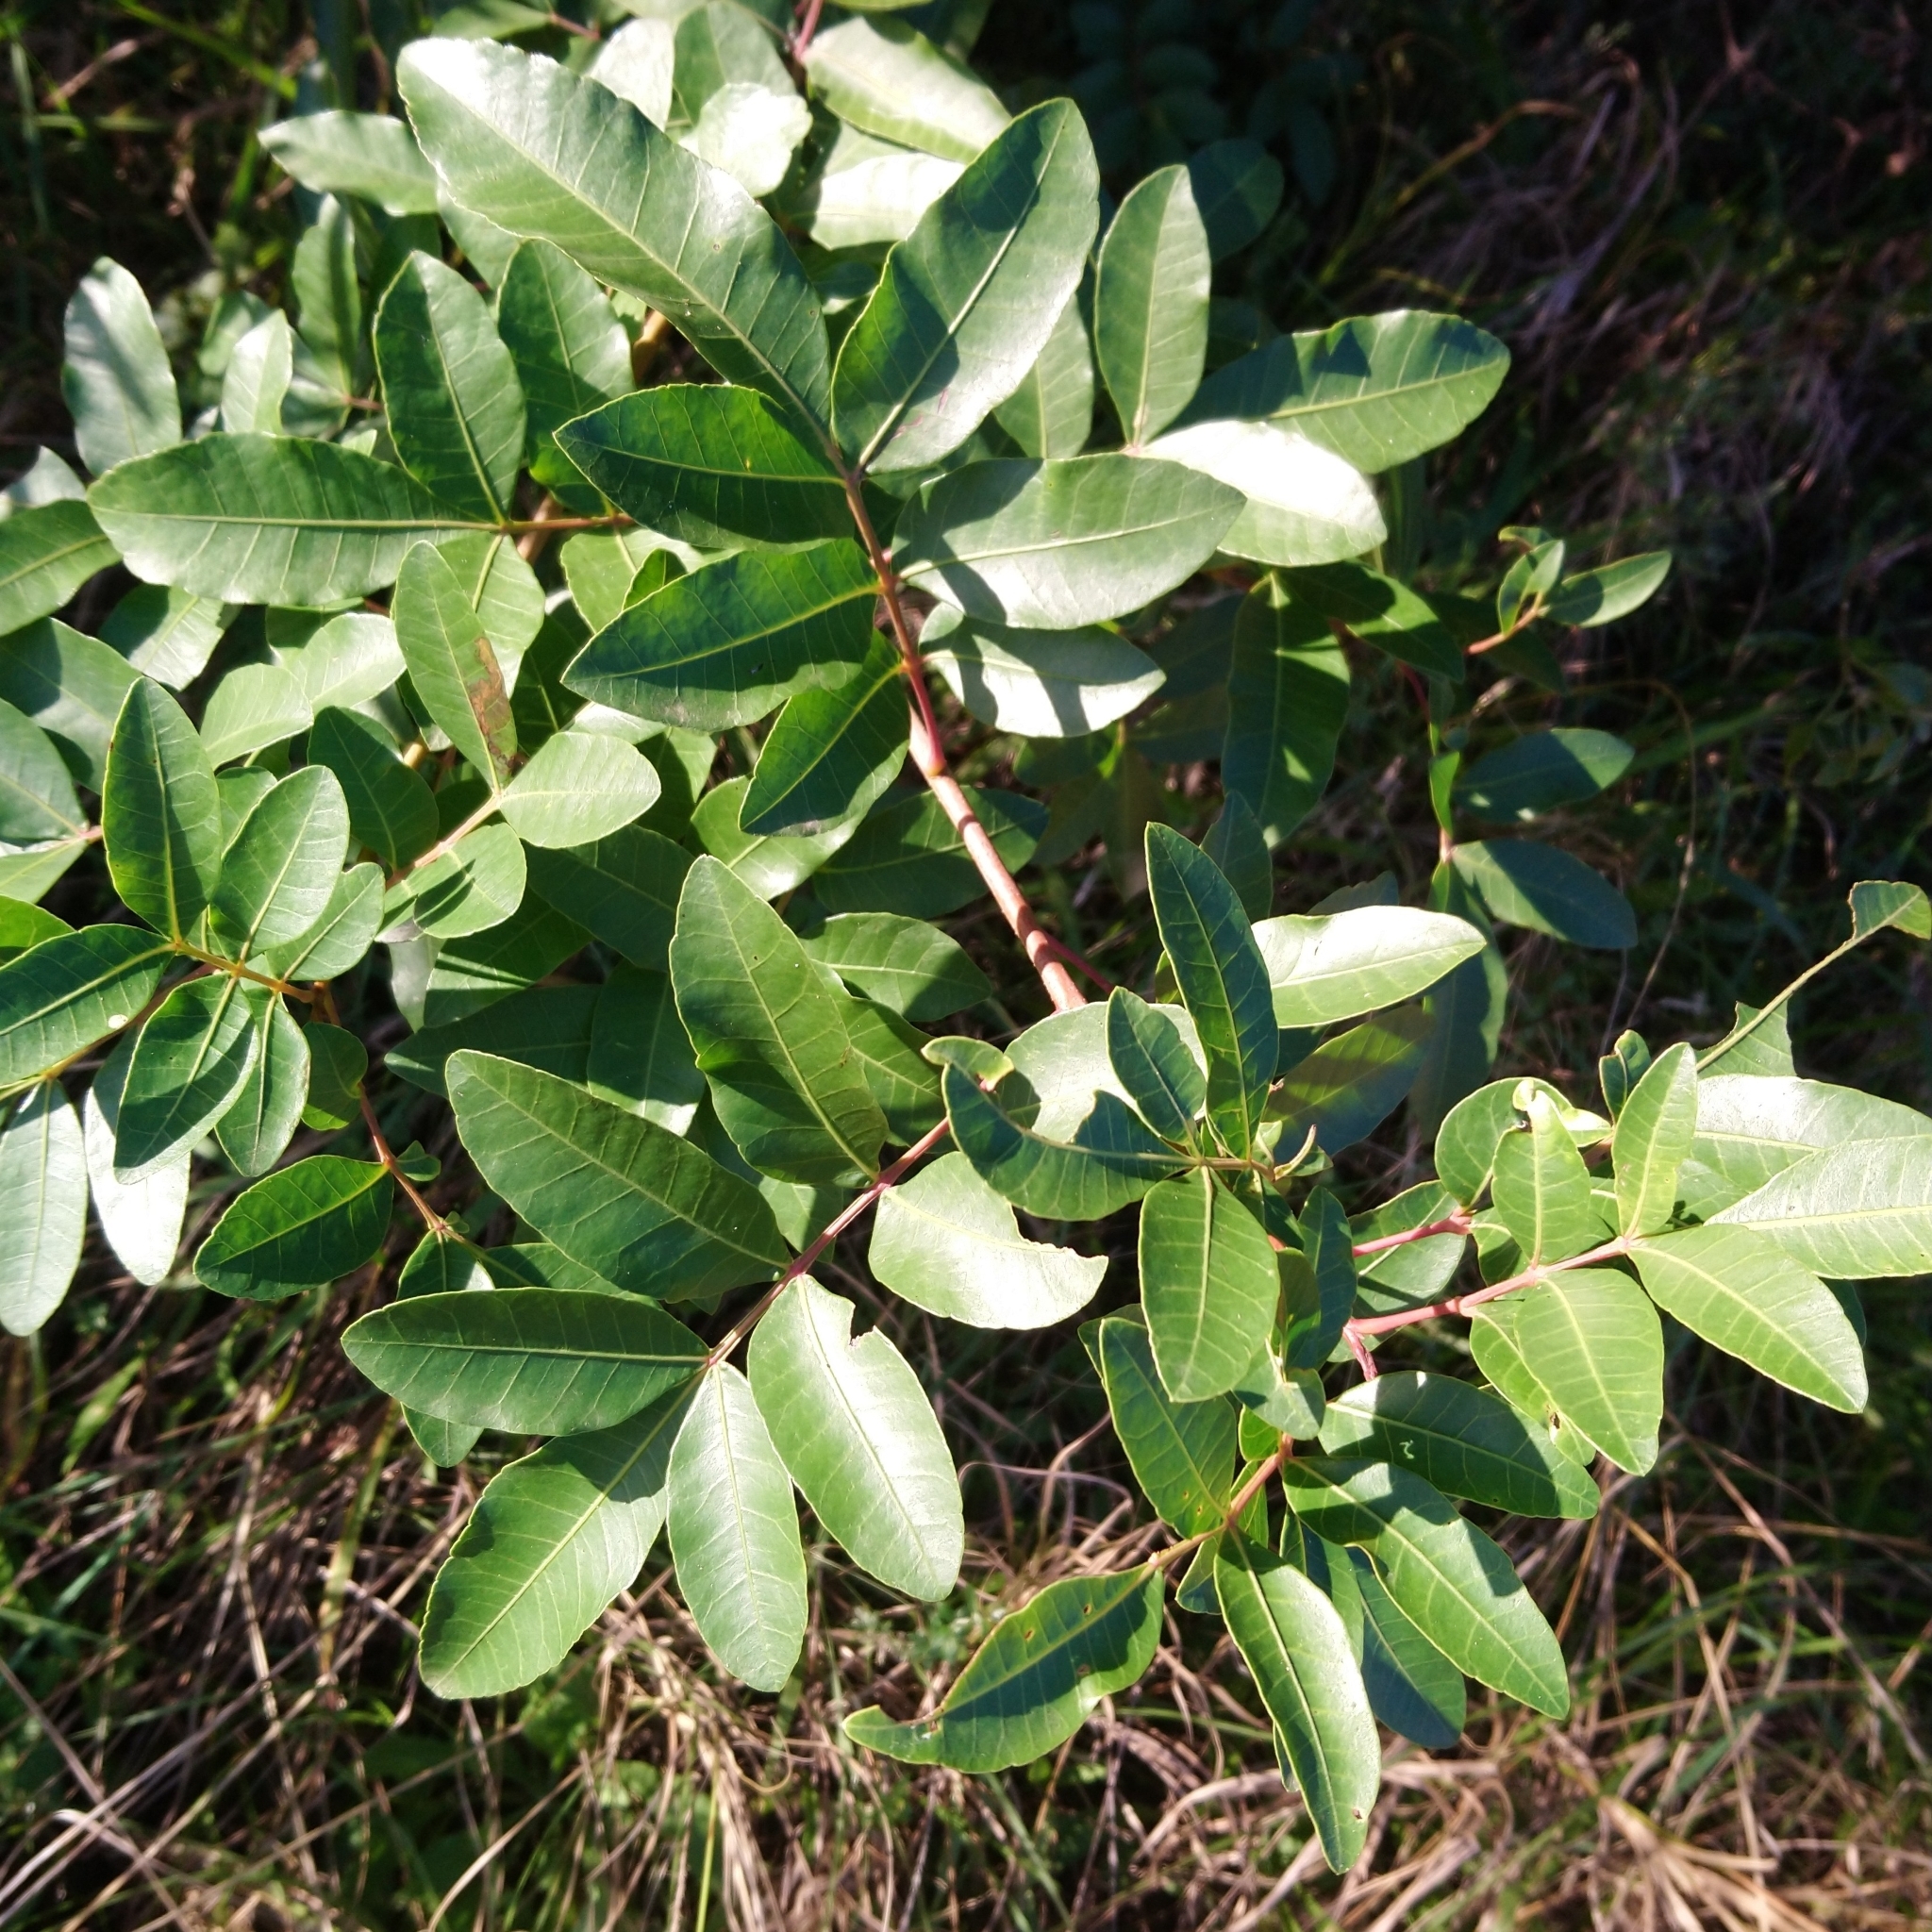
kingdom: Plantae
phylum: Tracheophyta
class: Magnoliopsida
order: Sapindales
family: Anacardiaceae
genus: Schinus
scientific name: Schinus terebinthifolia
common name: Brazilian peppertree
